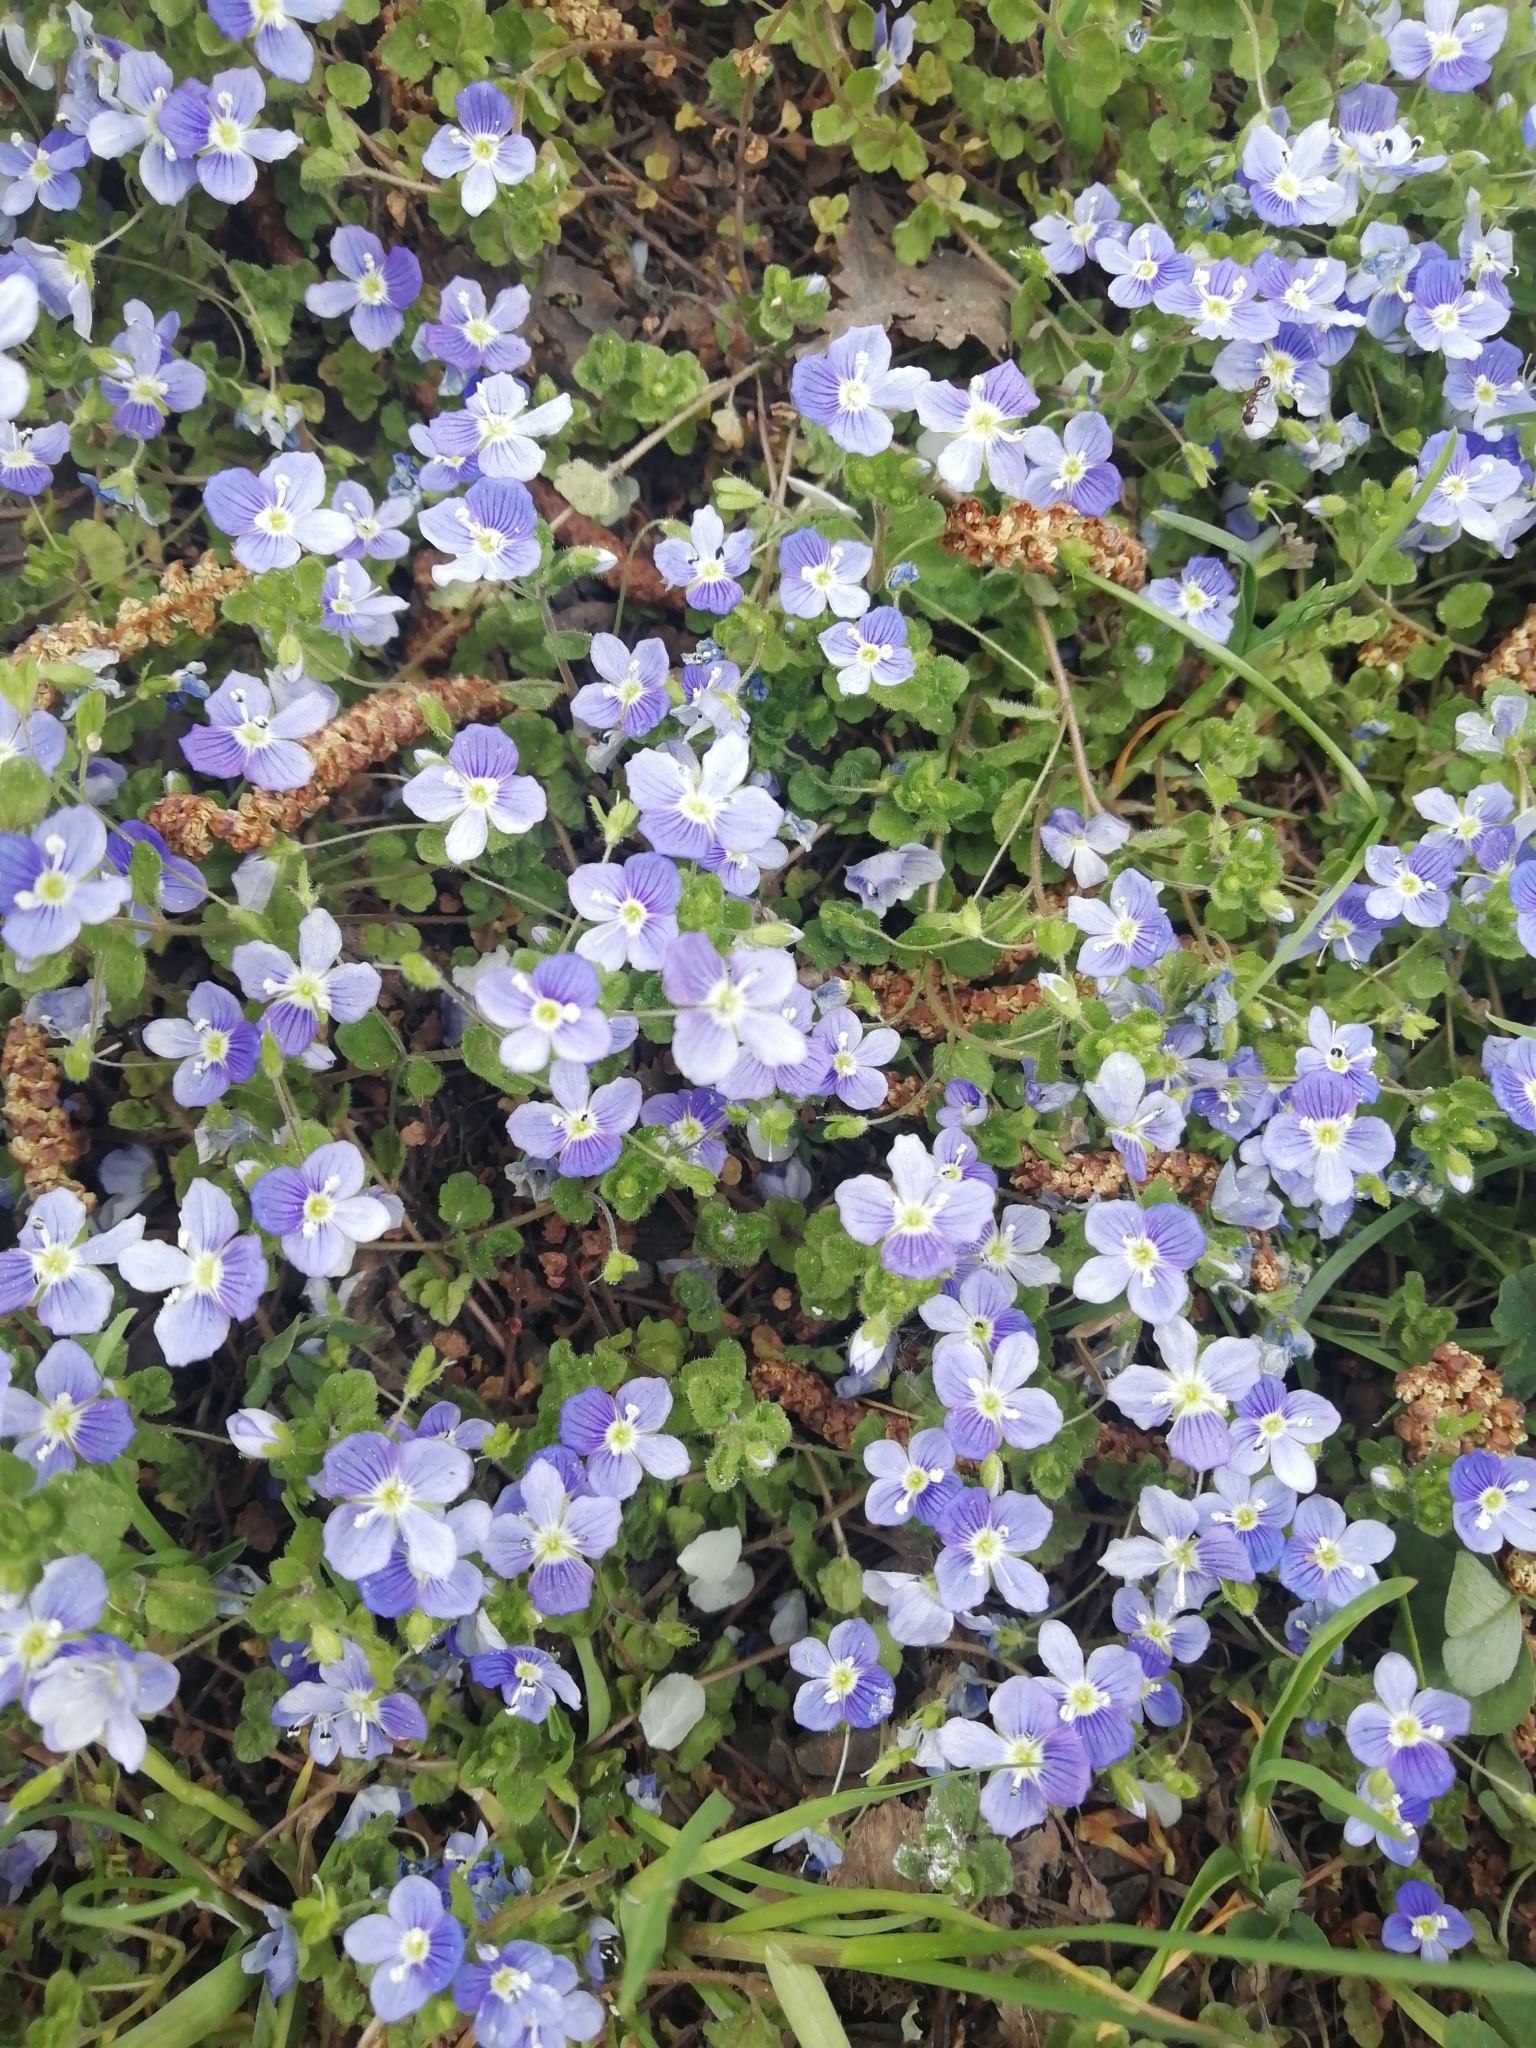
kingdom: Plantae
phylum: Tracheophyta
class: Magnoliopsida
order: Lamiales
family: Plantaginaceae
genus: Veronica
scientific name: Veronica filiformis
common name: Slender speedwell
